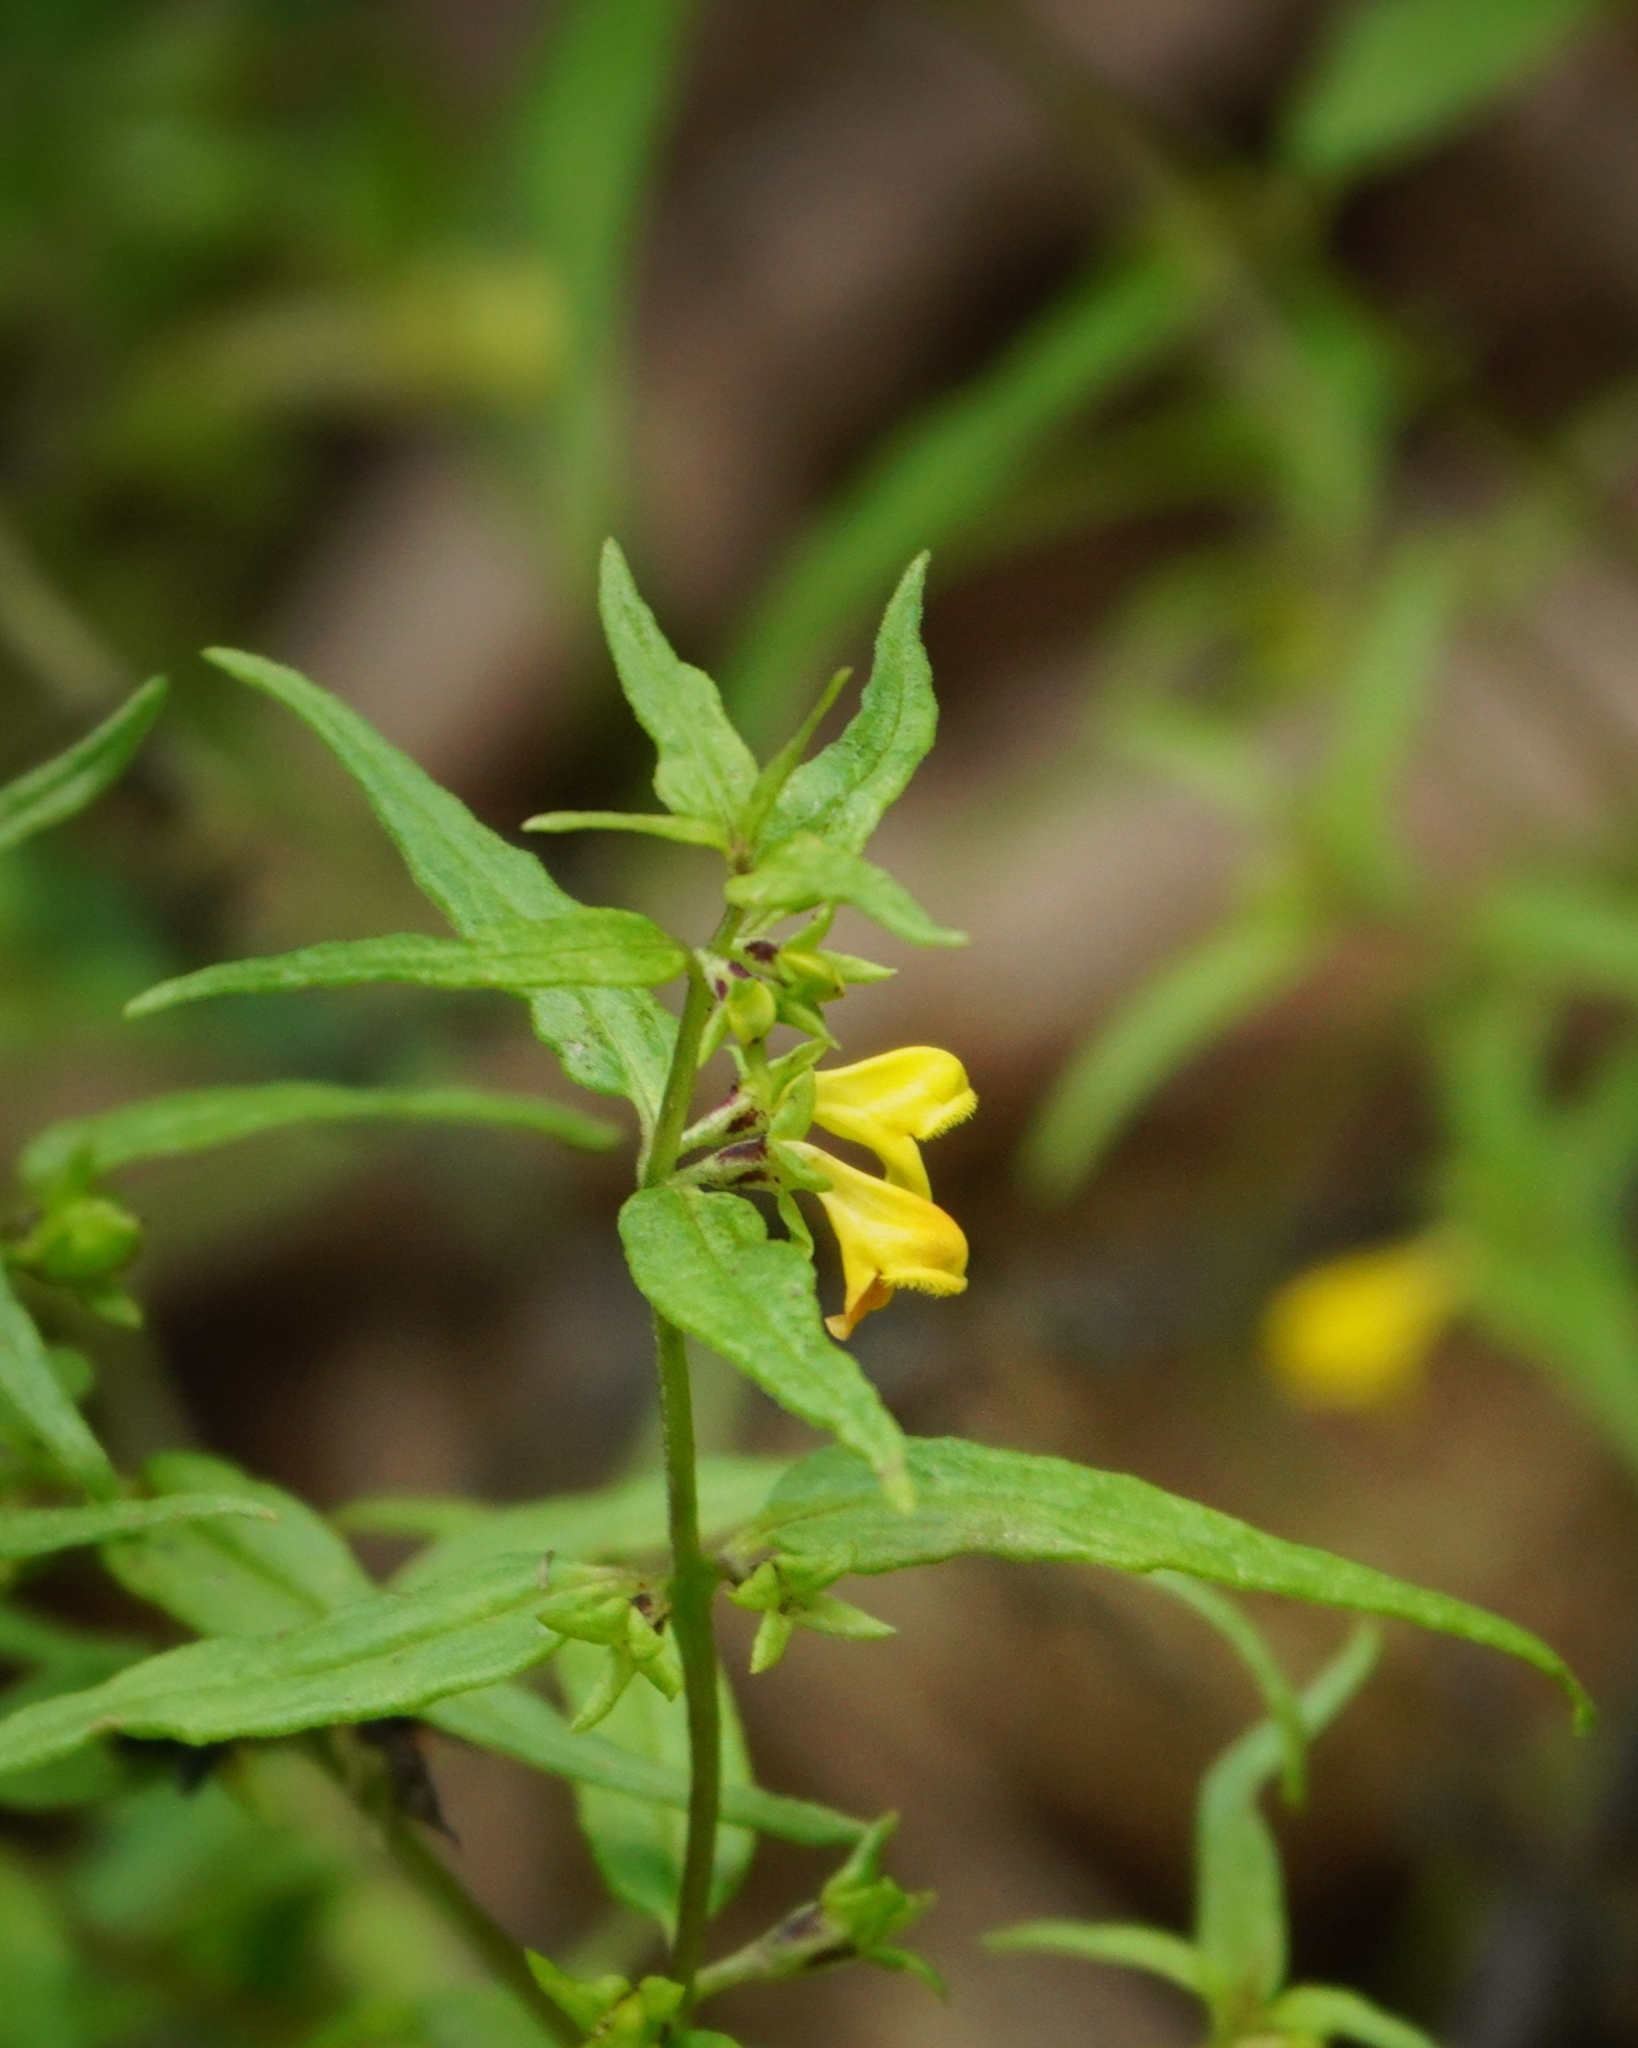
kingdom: Plantae
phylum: Tracheophyta
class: Magnoliopsida
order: Lamiales
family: Orobanchaceae
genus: Melampyrum
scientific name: Melampyrum sylvaticum
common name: Small cow-wheat
